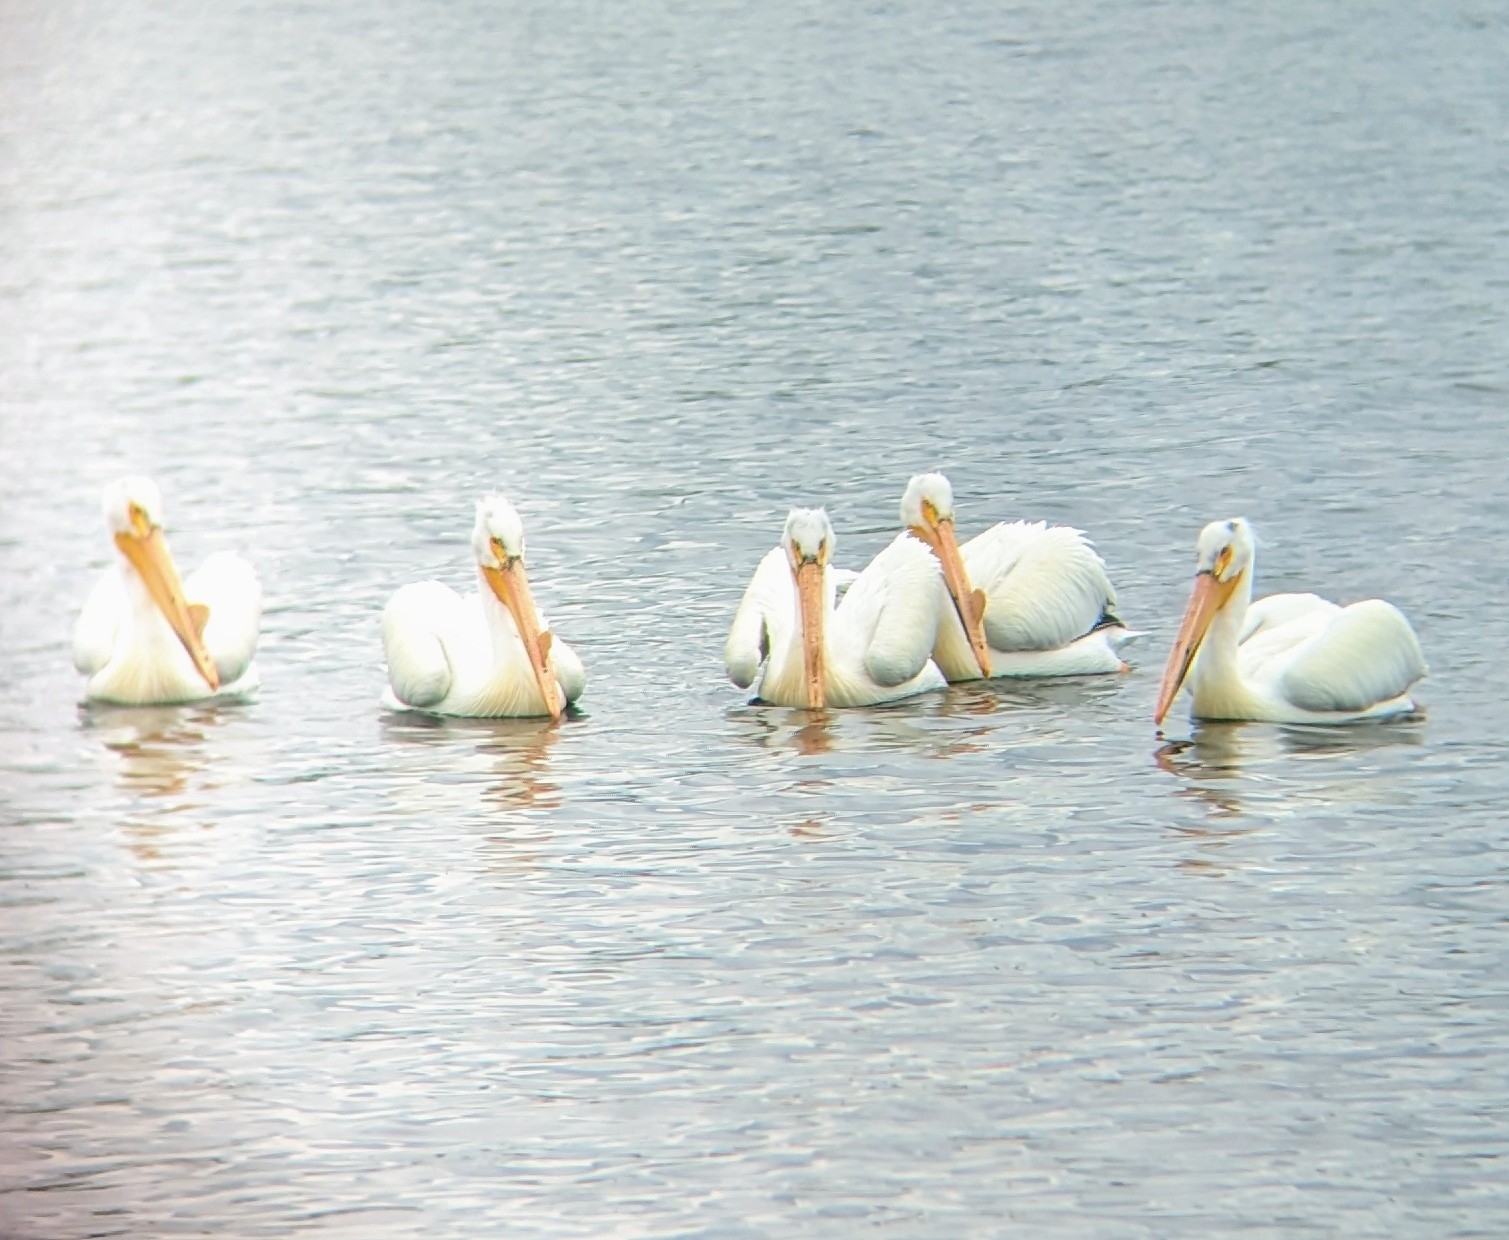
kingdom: Animalia
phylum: Chordata
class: Aves
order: Pelecaniformes
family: Pelecanidae
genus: Pelecanus
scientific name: Pelecanus erythrorhynchos
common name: American white pelican
